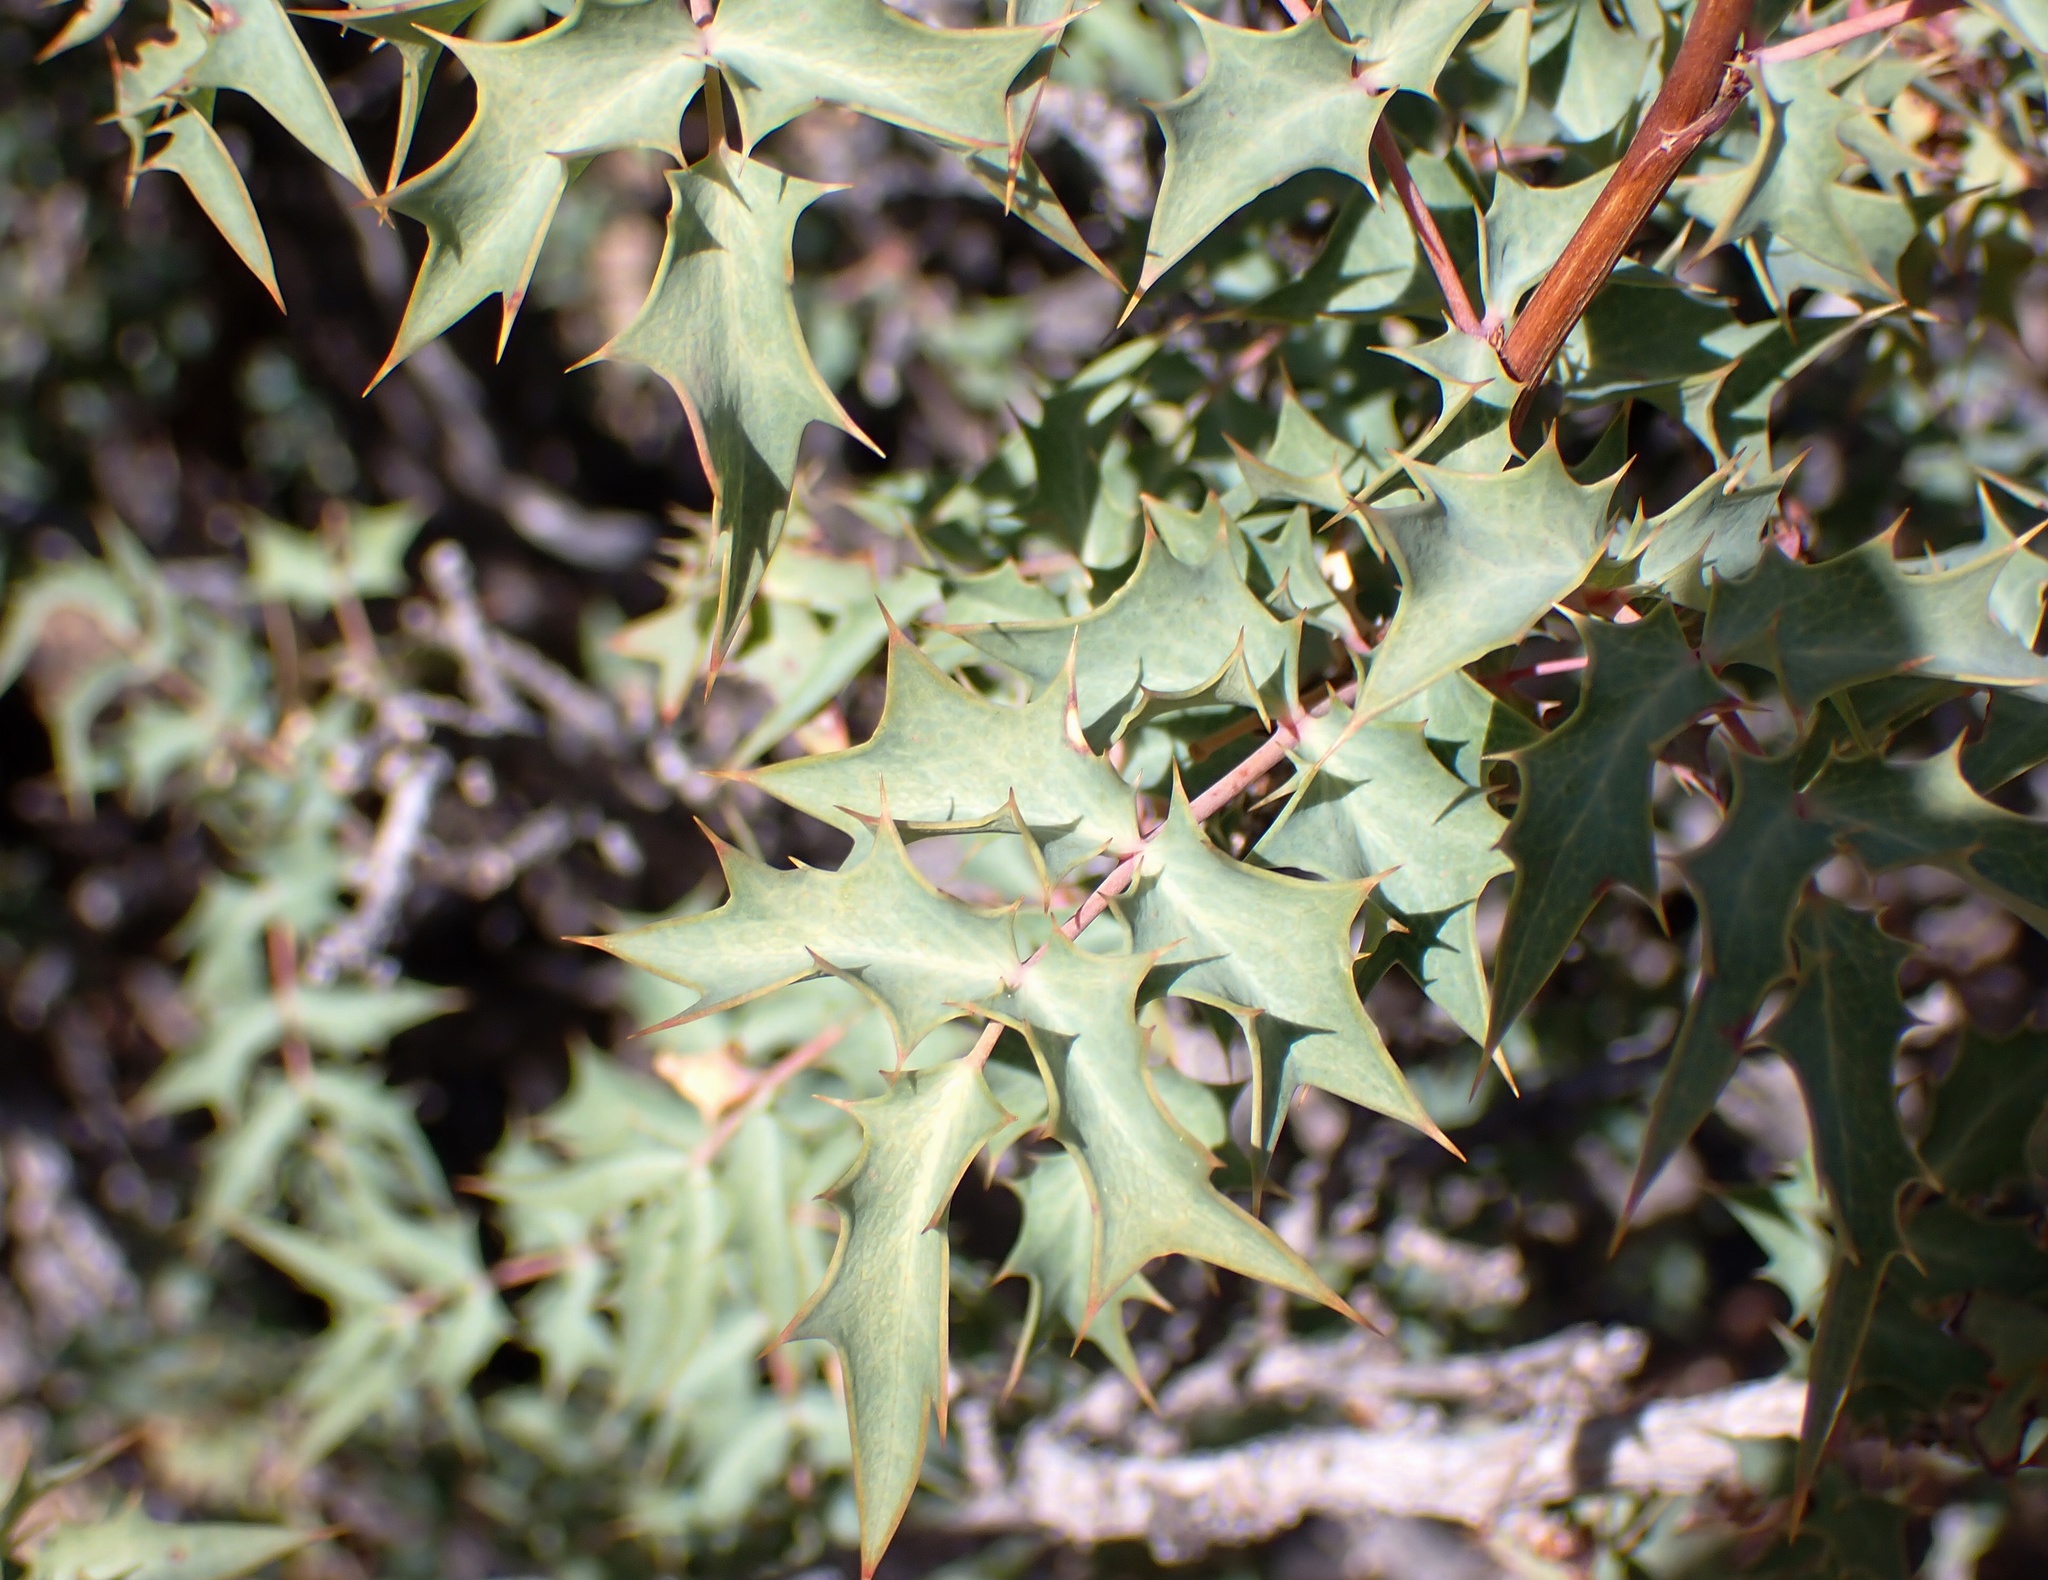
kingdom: Plantae
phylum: Tracheophyta
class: Magnoliopsida
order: Ranunculales
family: Berberidaceae
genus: Alloberberis
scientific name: Alloberberis fremontii
